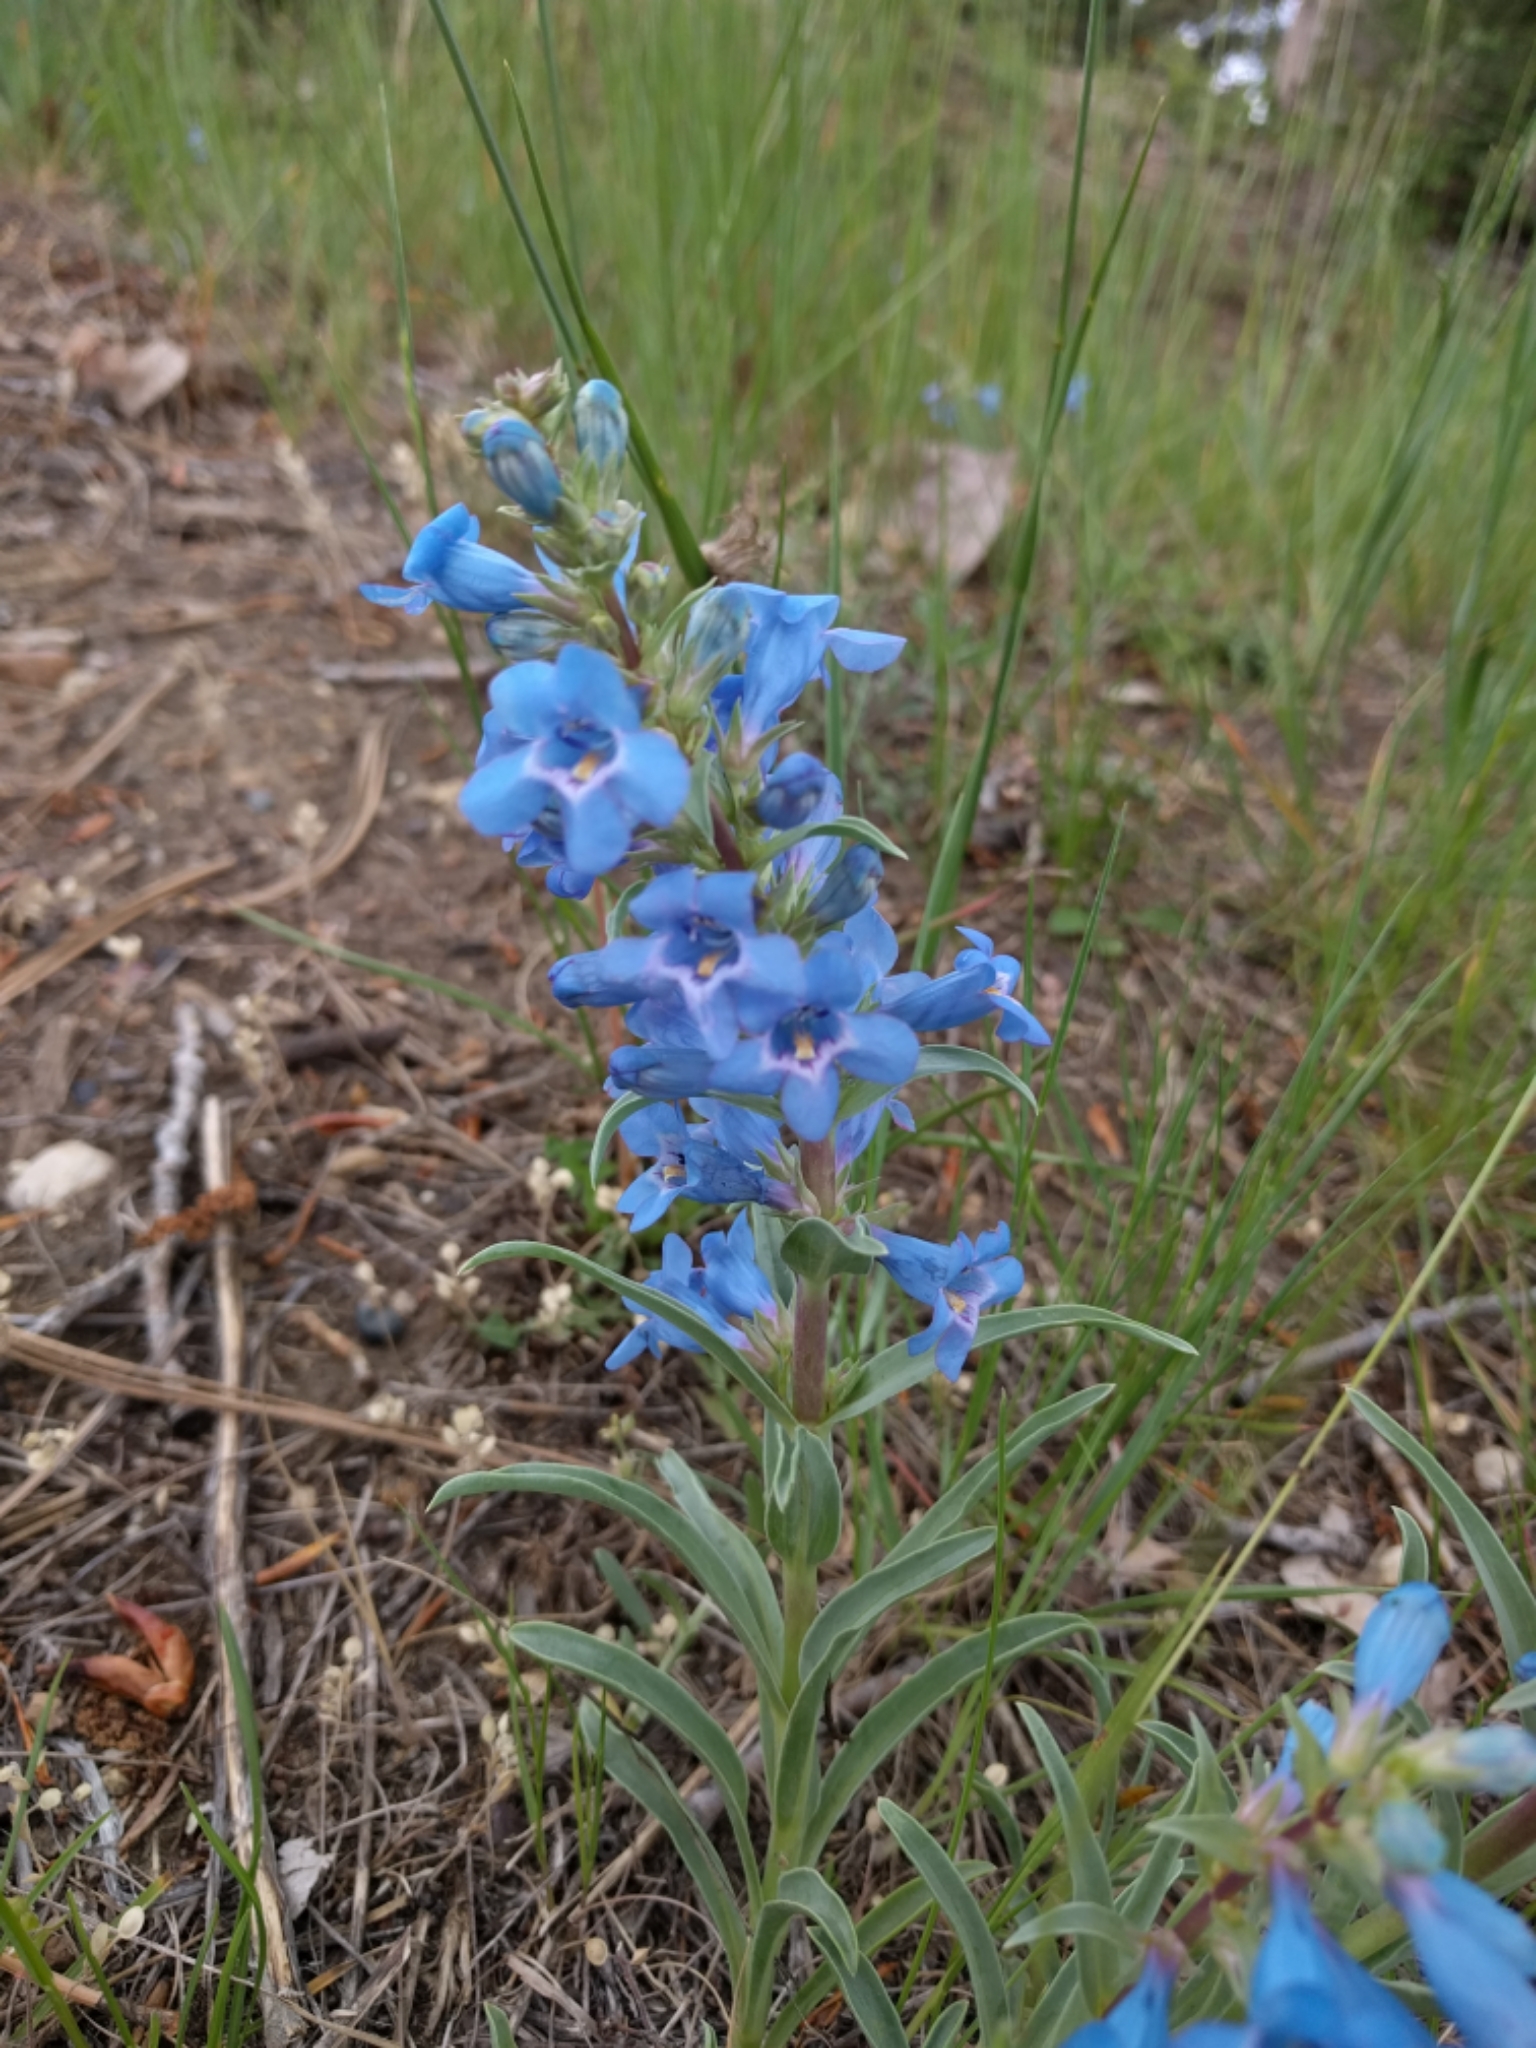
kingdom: Plantae
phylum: Tracheophyta
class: Magnoliopsida
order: Lamiales
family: Plantaginaceae
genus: Penstemon
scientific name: Penstemon angustifolius
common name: Narrow beardtongue
